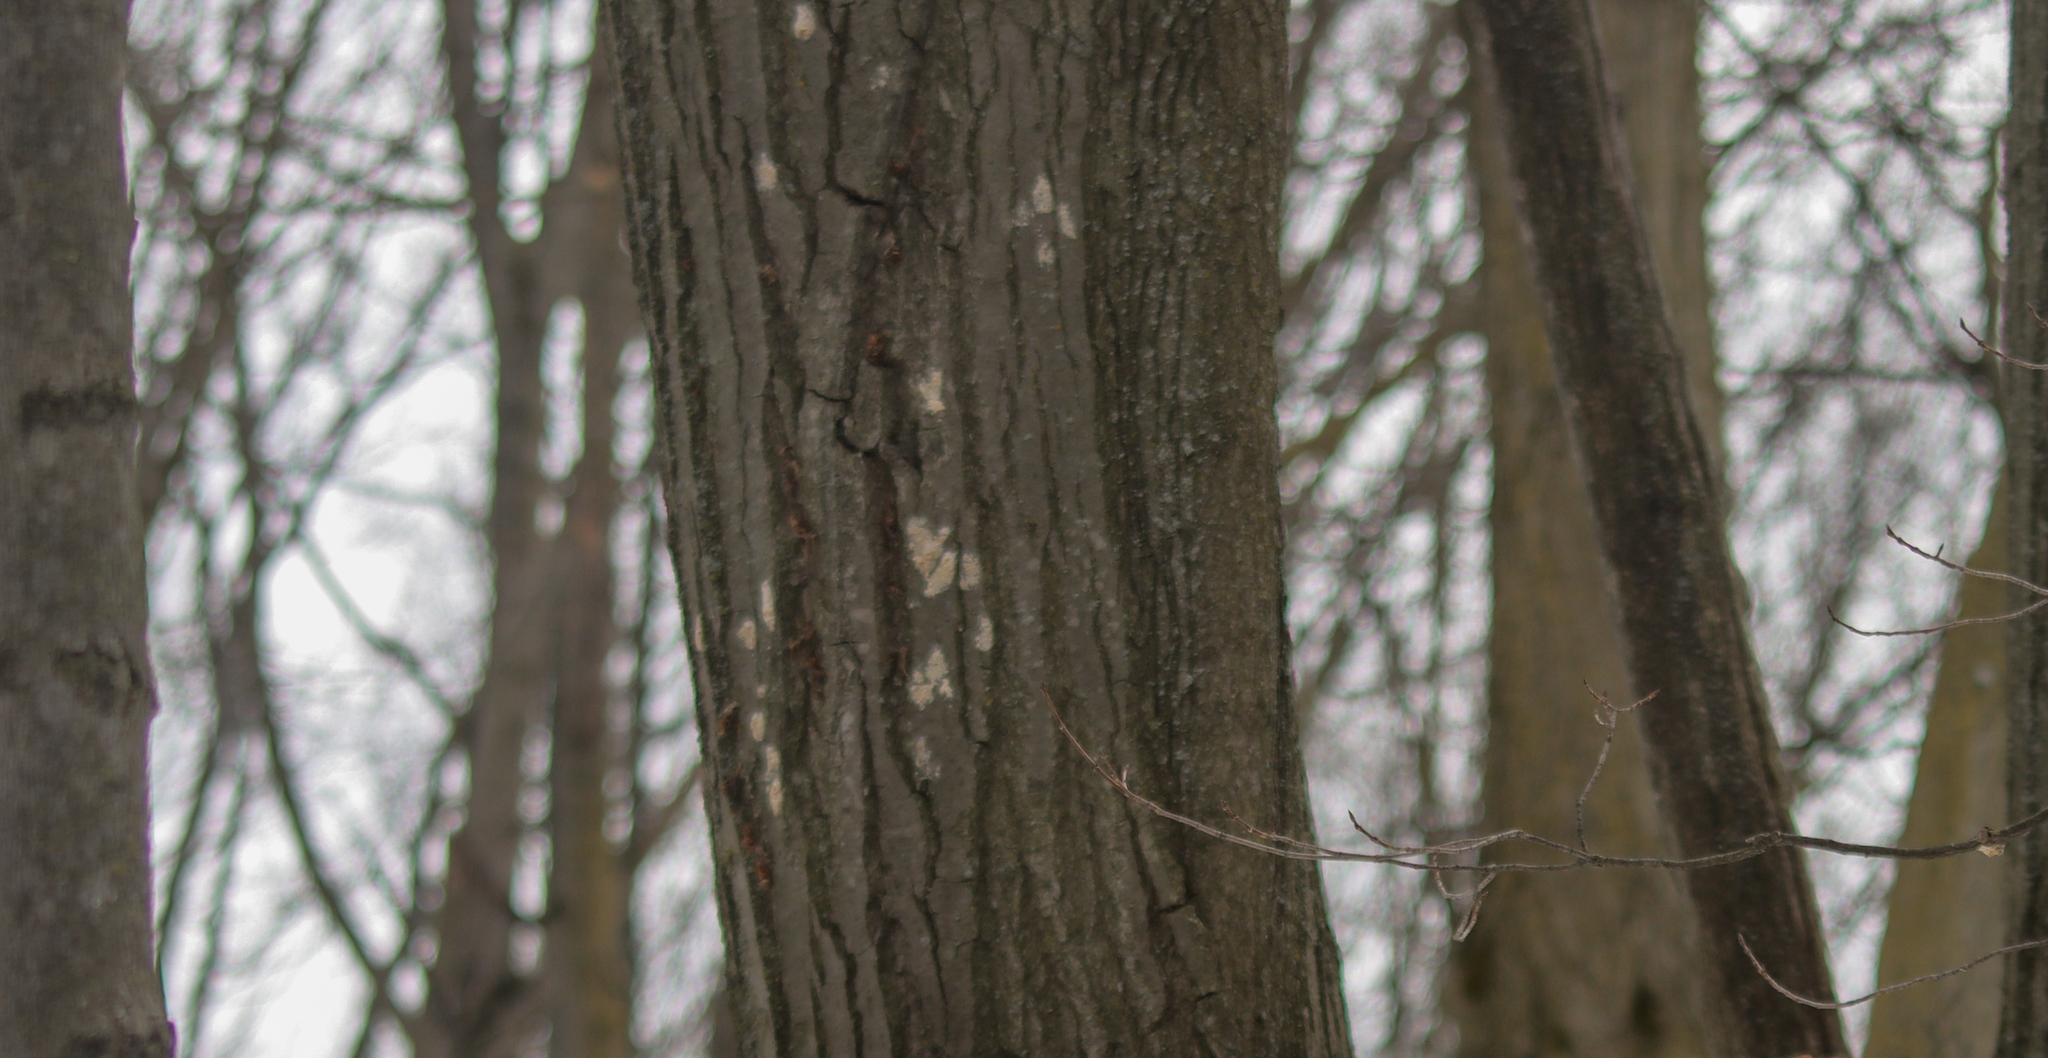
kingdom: Animalia
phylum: Arthropoda
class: Insecta
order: Lepidoptera
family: Erebidae
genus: Lymantria
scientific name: Lymantria dispar
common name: Gypsy moth
